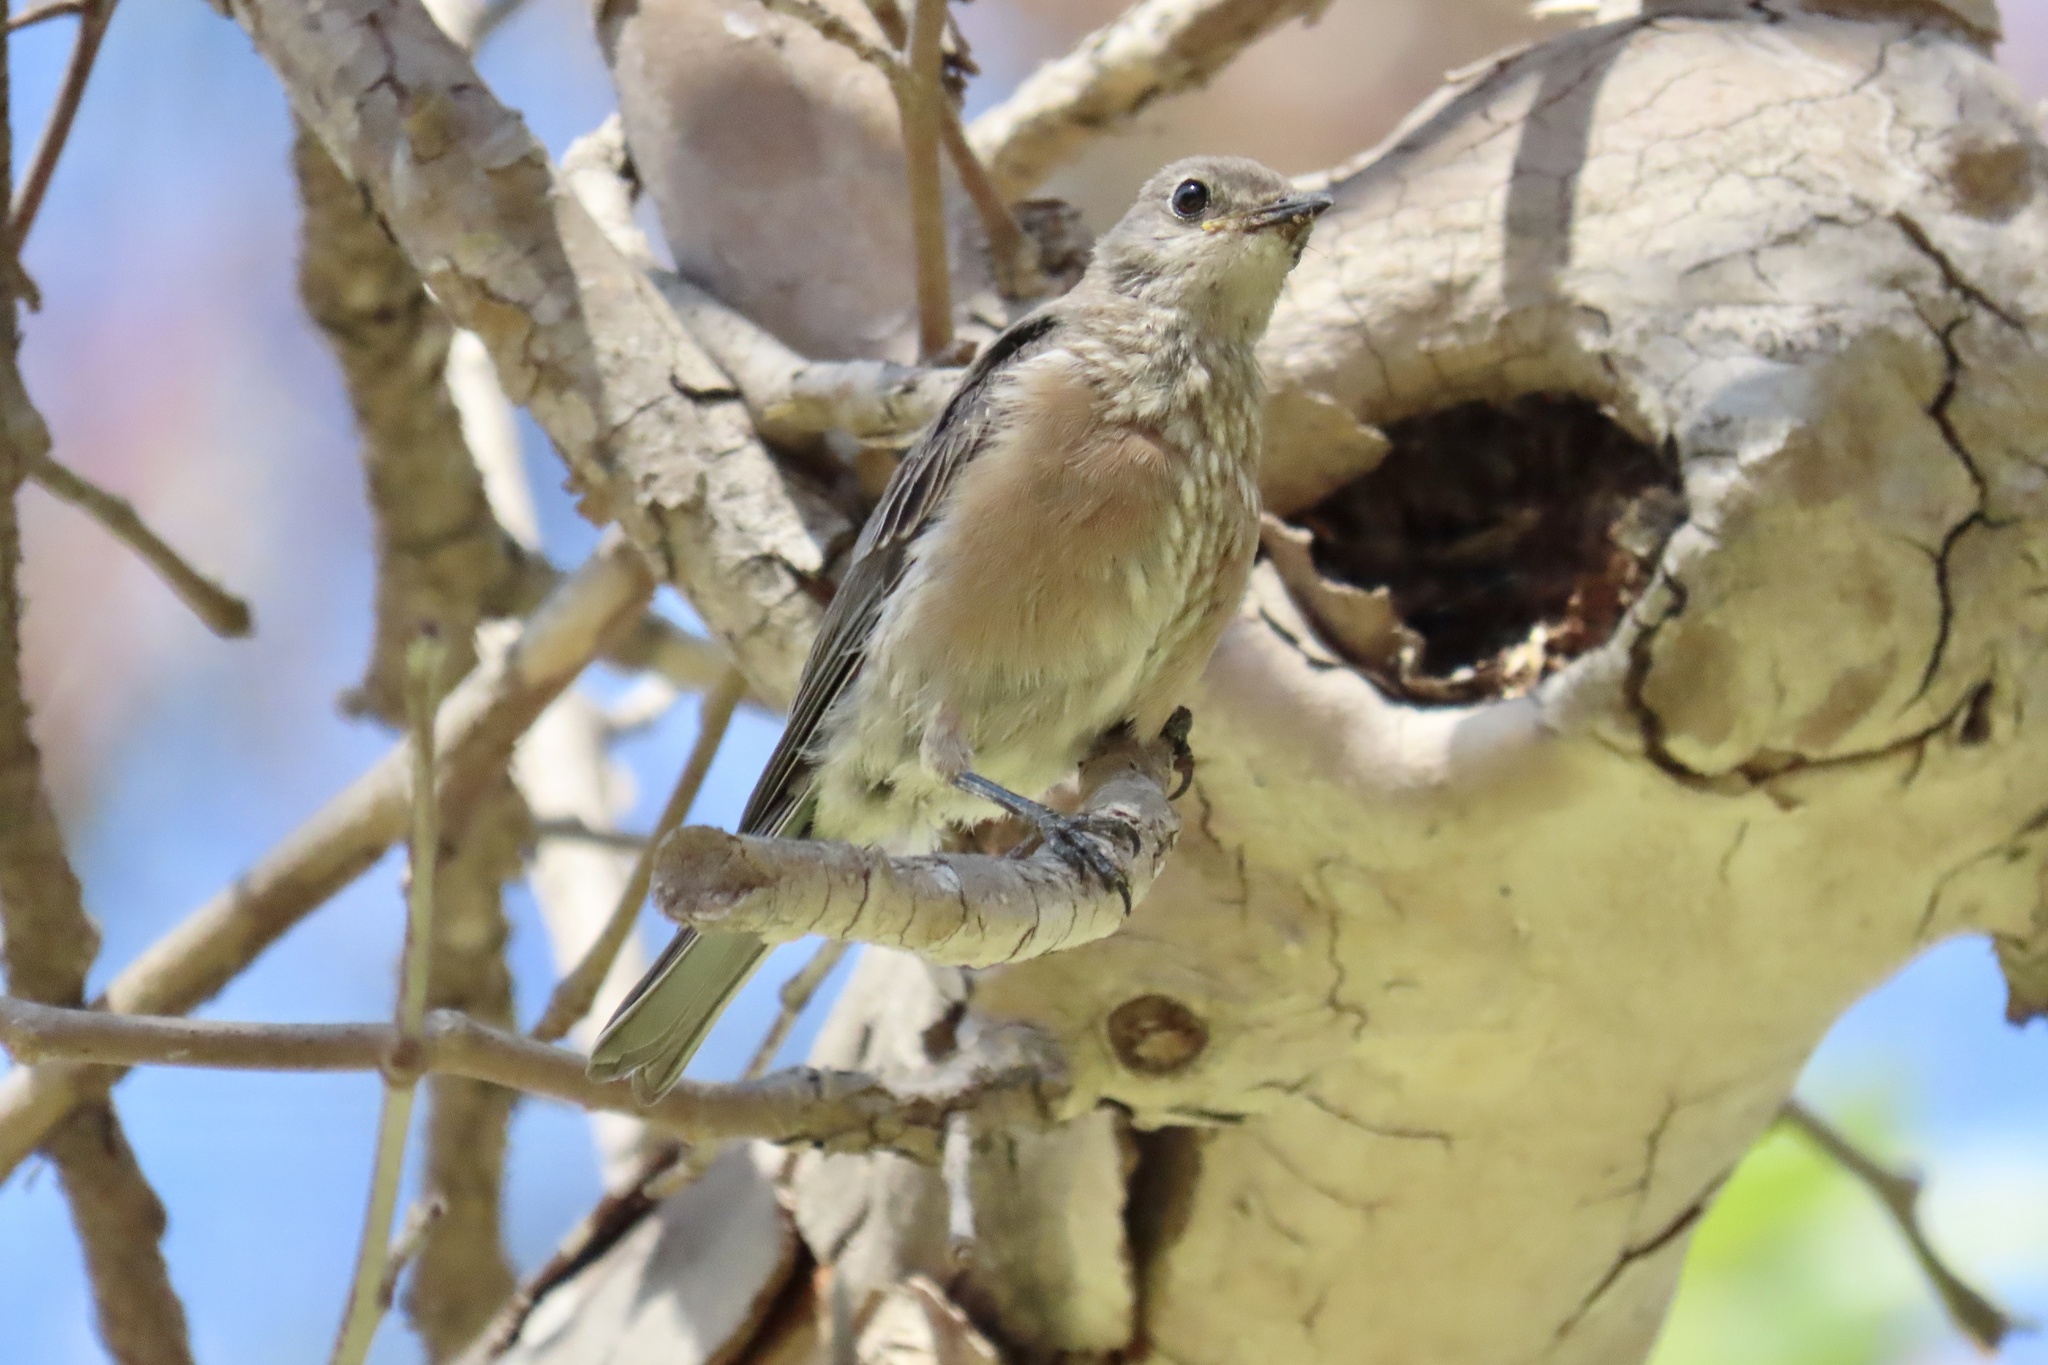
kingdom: Animalia
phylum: Chordata
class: Aves
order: Passeriformes
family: Turdidae
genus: Sialia
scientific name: Sialia mexicana
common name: Western bluebird
